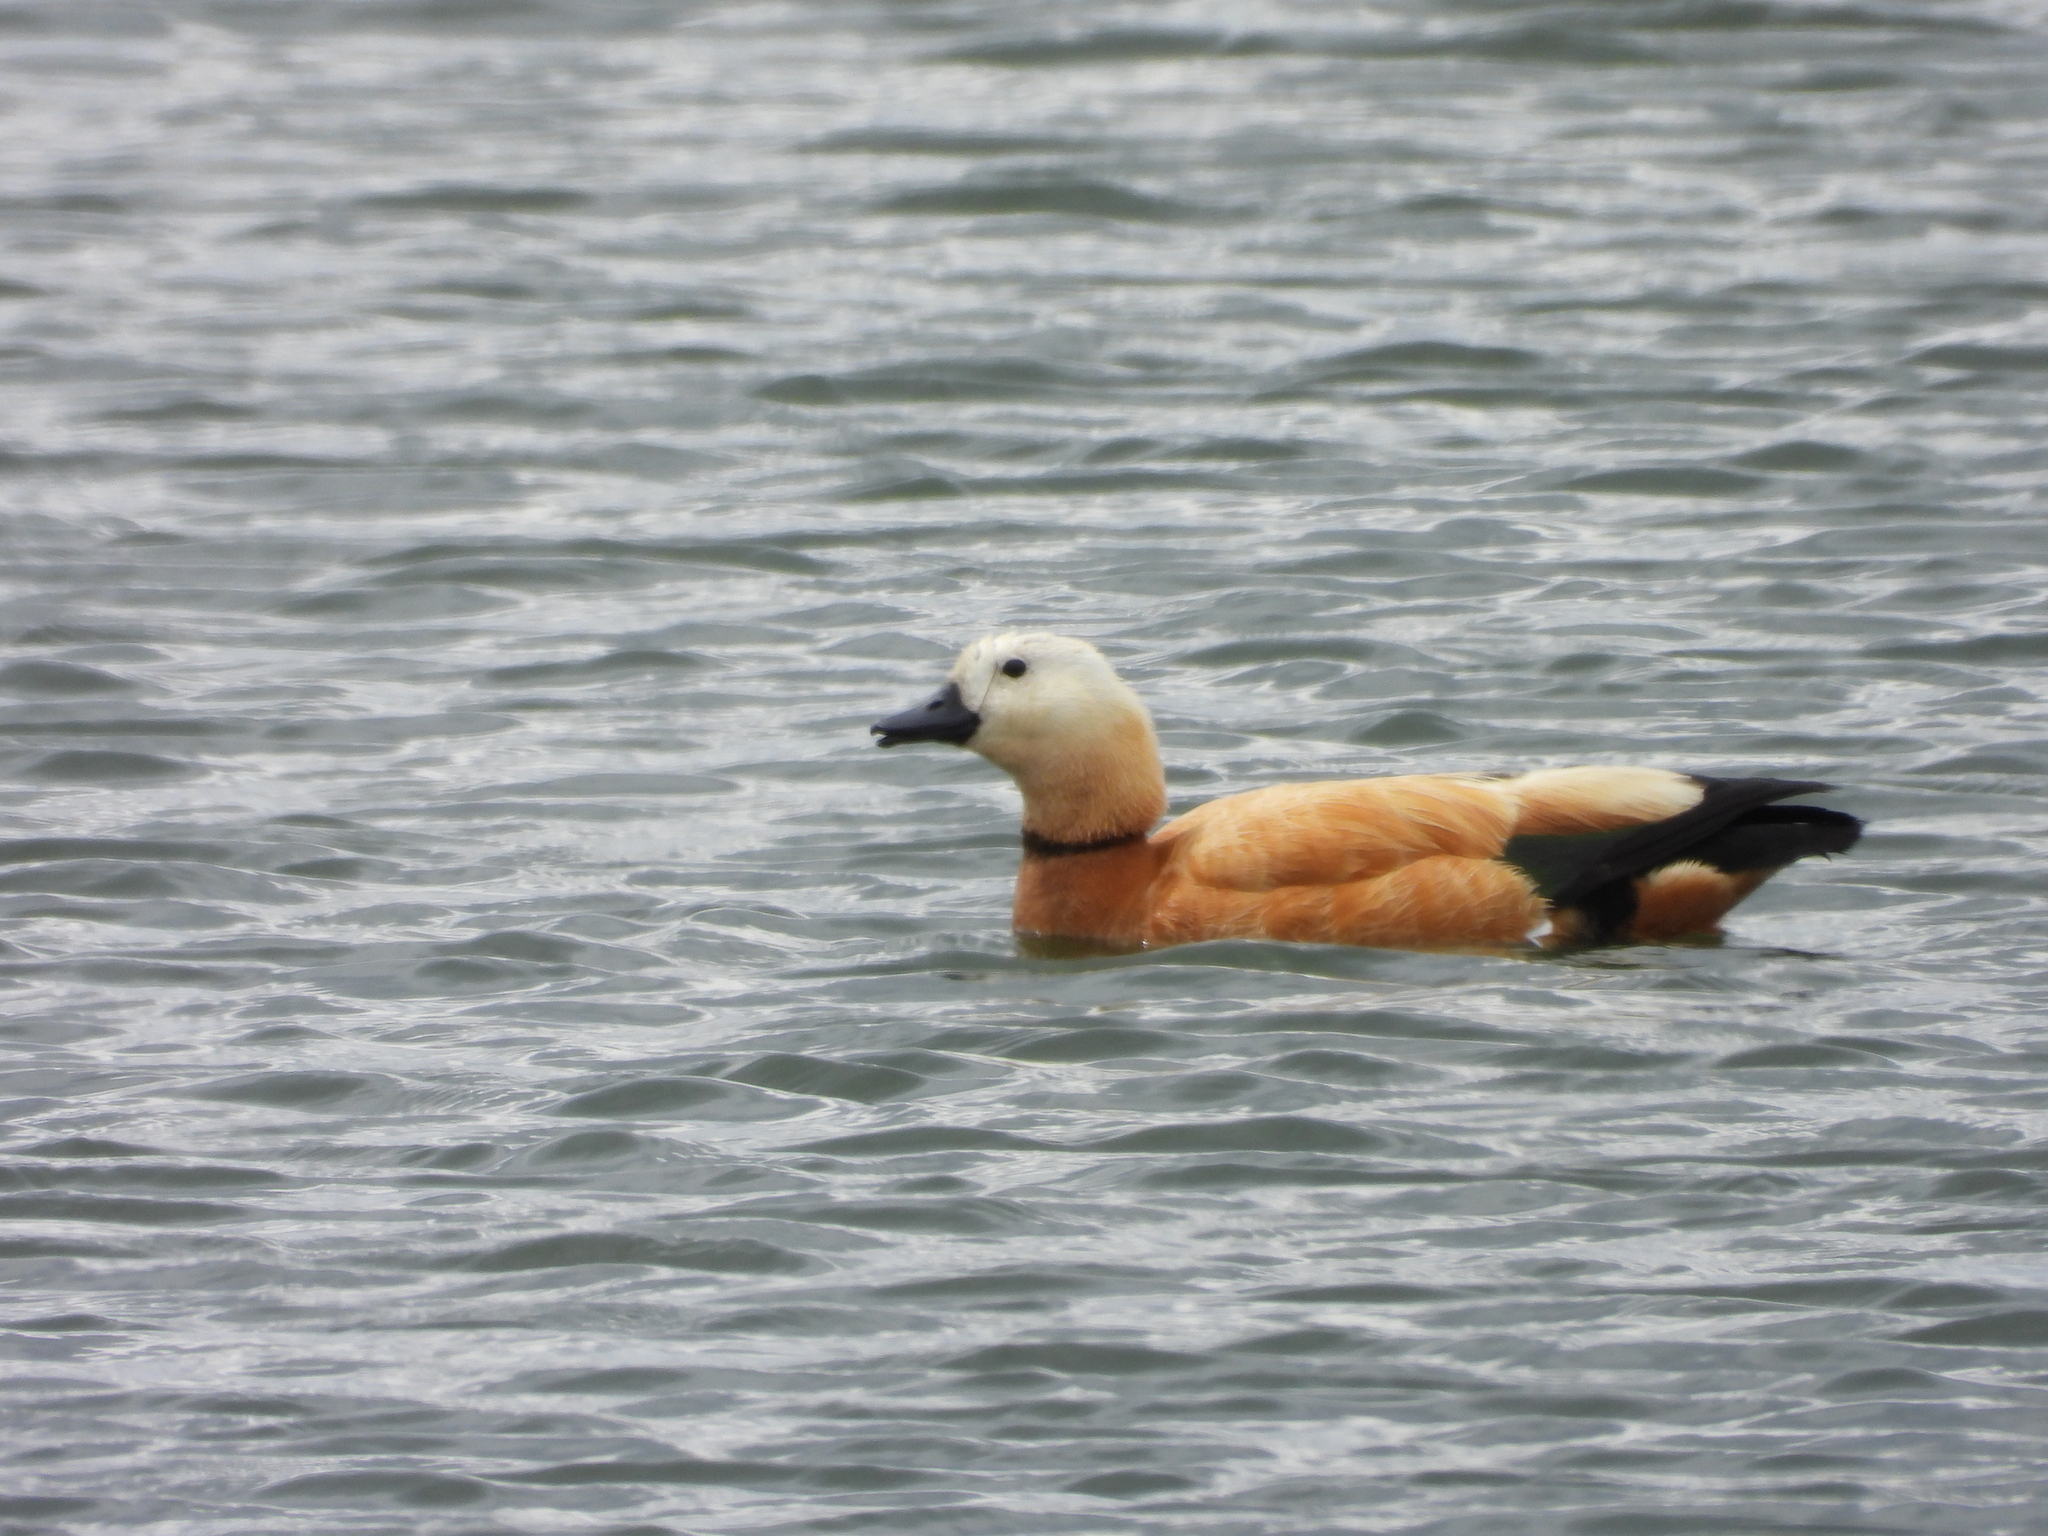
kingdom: Animalia
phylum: Chordata
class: Aves
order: Anseriformes
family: Anatidae
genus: Tadorna
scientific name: Tadorna ferruginea
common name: Ruddy shelduck
